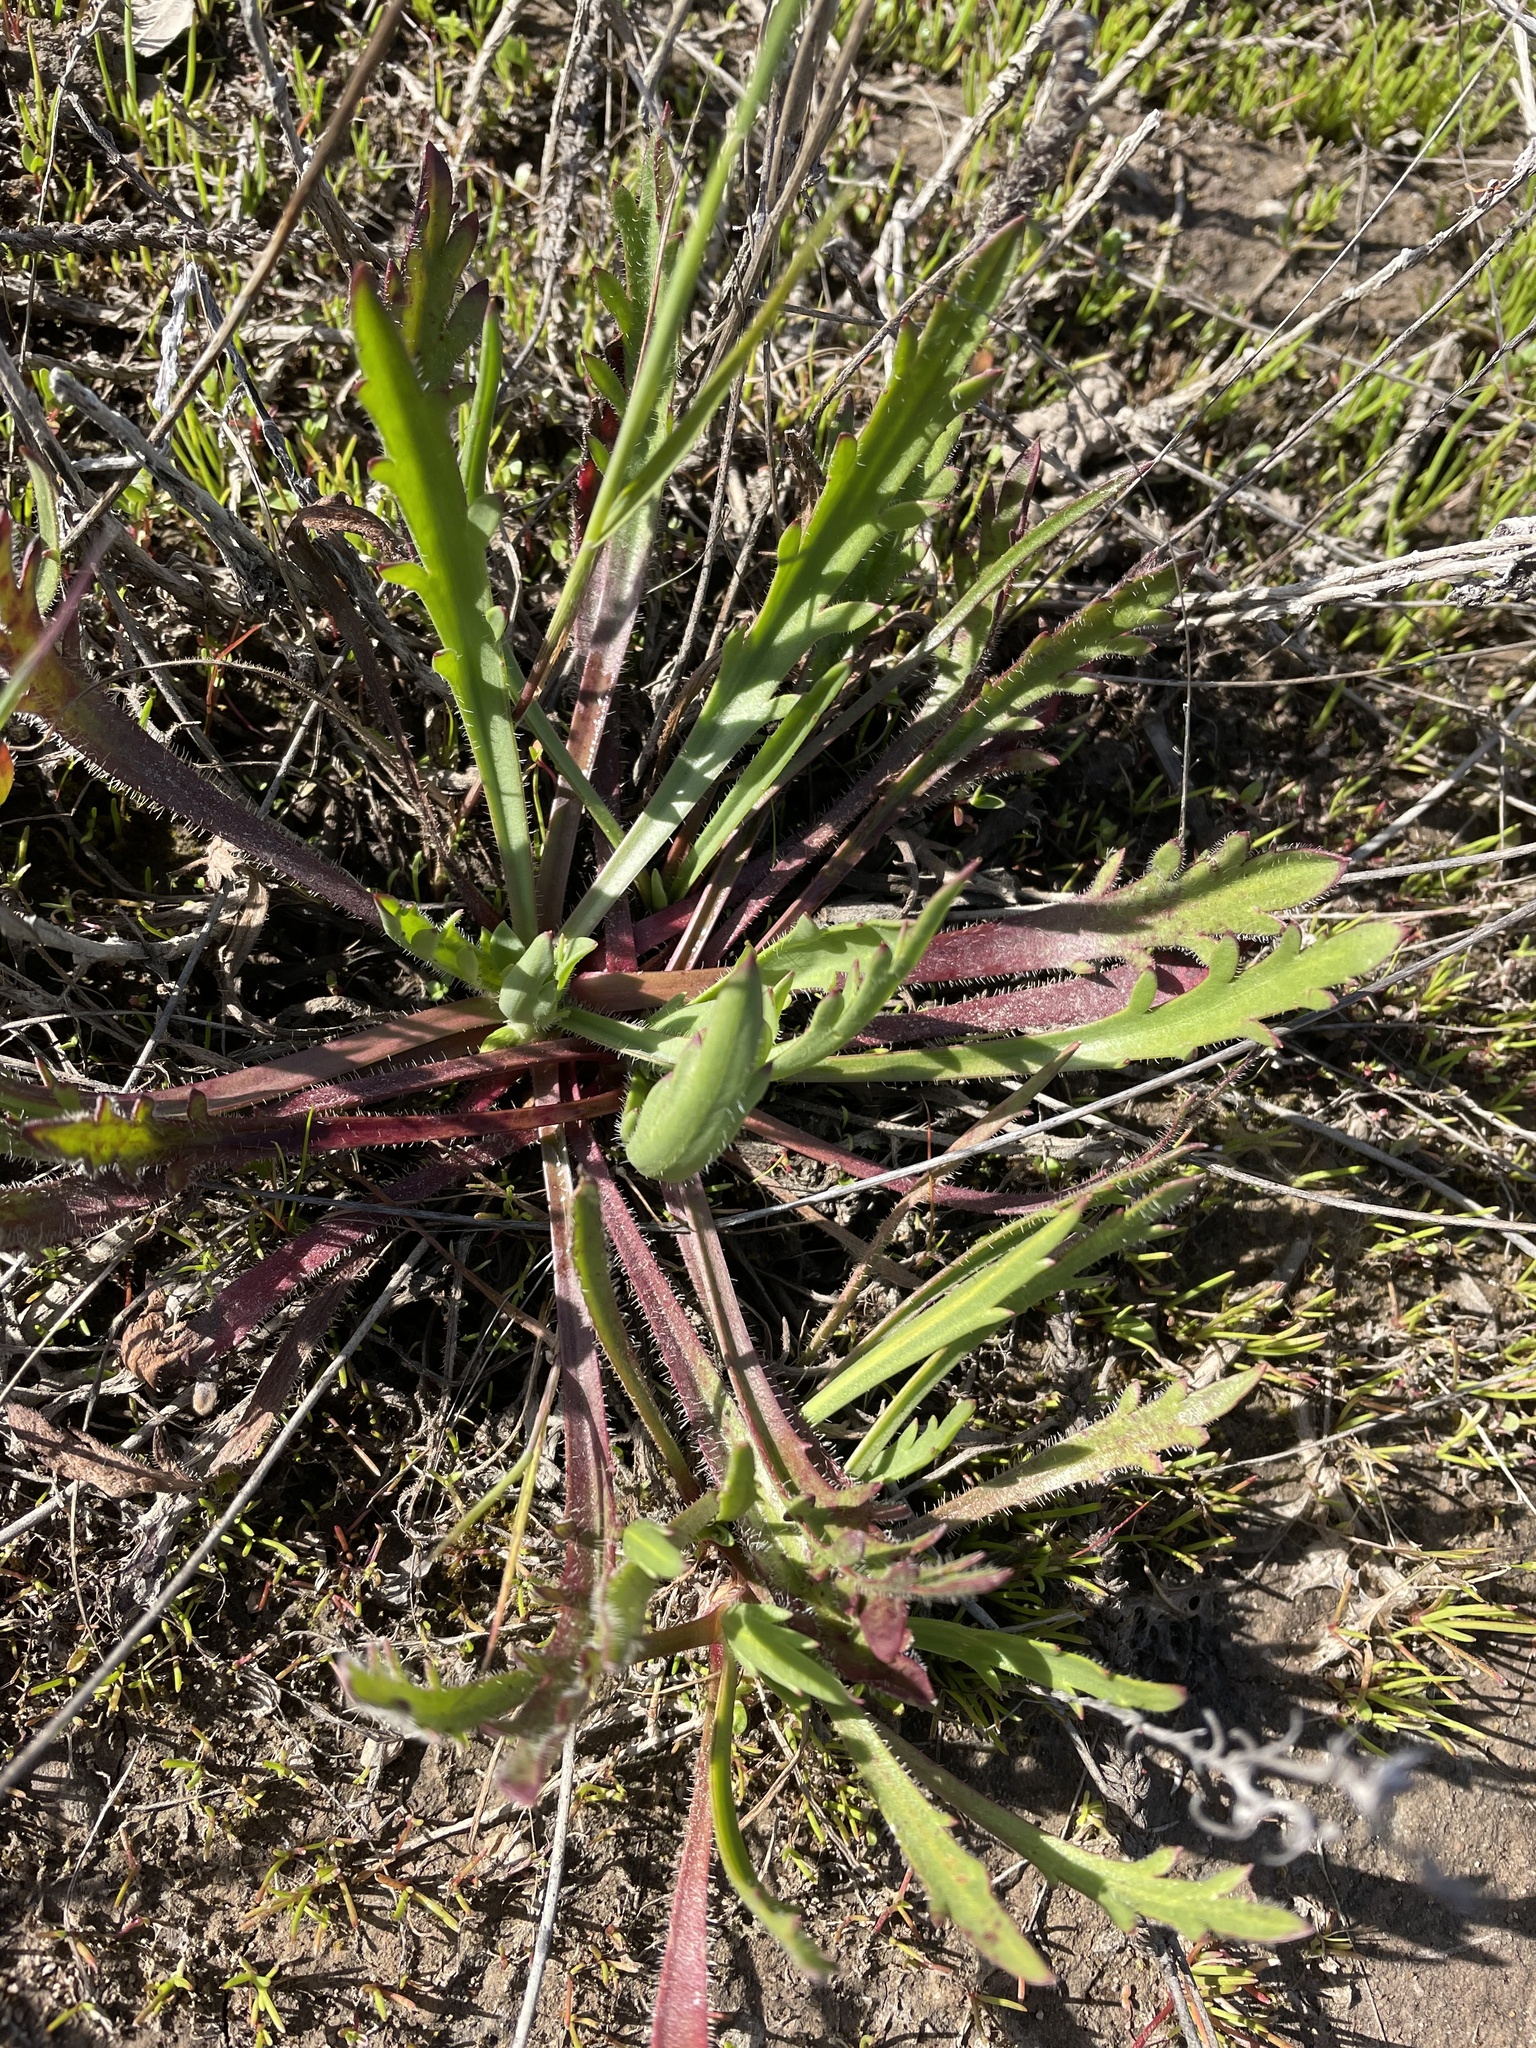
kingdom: Plantae
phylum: Tracheophyta
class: Magnoliopsida
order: Lamiales
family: Plantaginaceae
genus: Plantago
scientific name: Plantago coronopus
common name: Buck's-horn plantain
